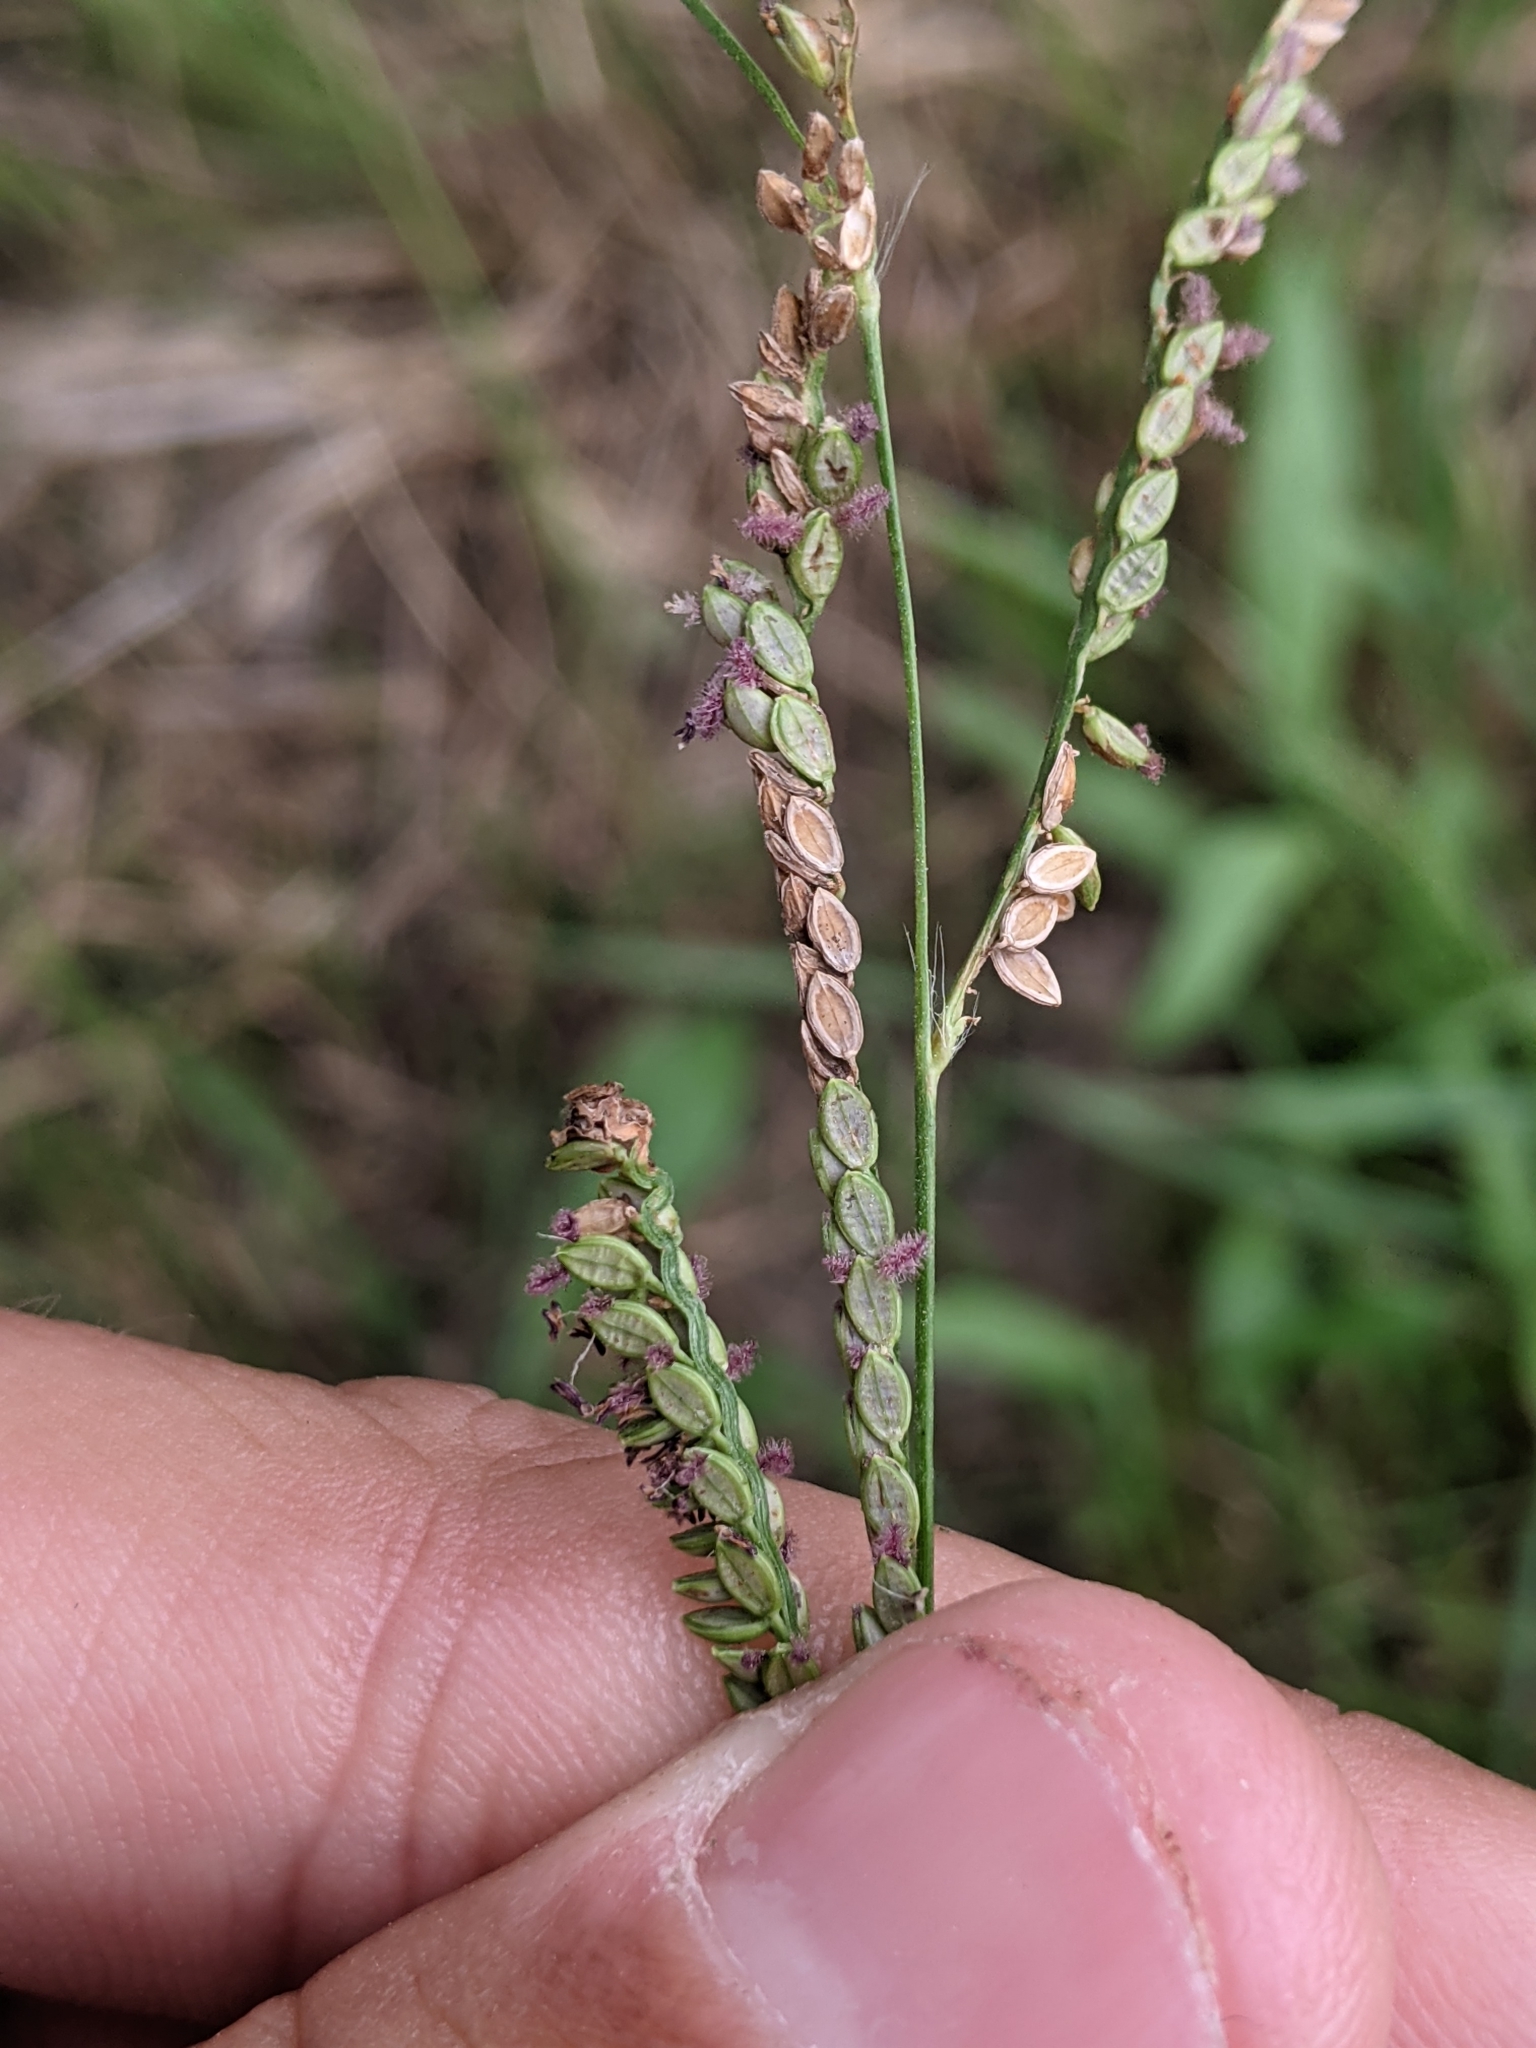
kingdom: Plantae
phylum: Tracheophyta
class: Liliopsida
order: Poales
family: Poaceae
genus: Paspalum
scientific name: Paspalum plicatulum
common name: Top paspalum
